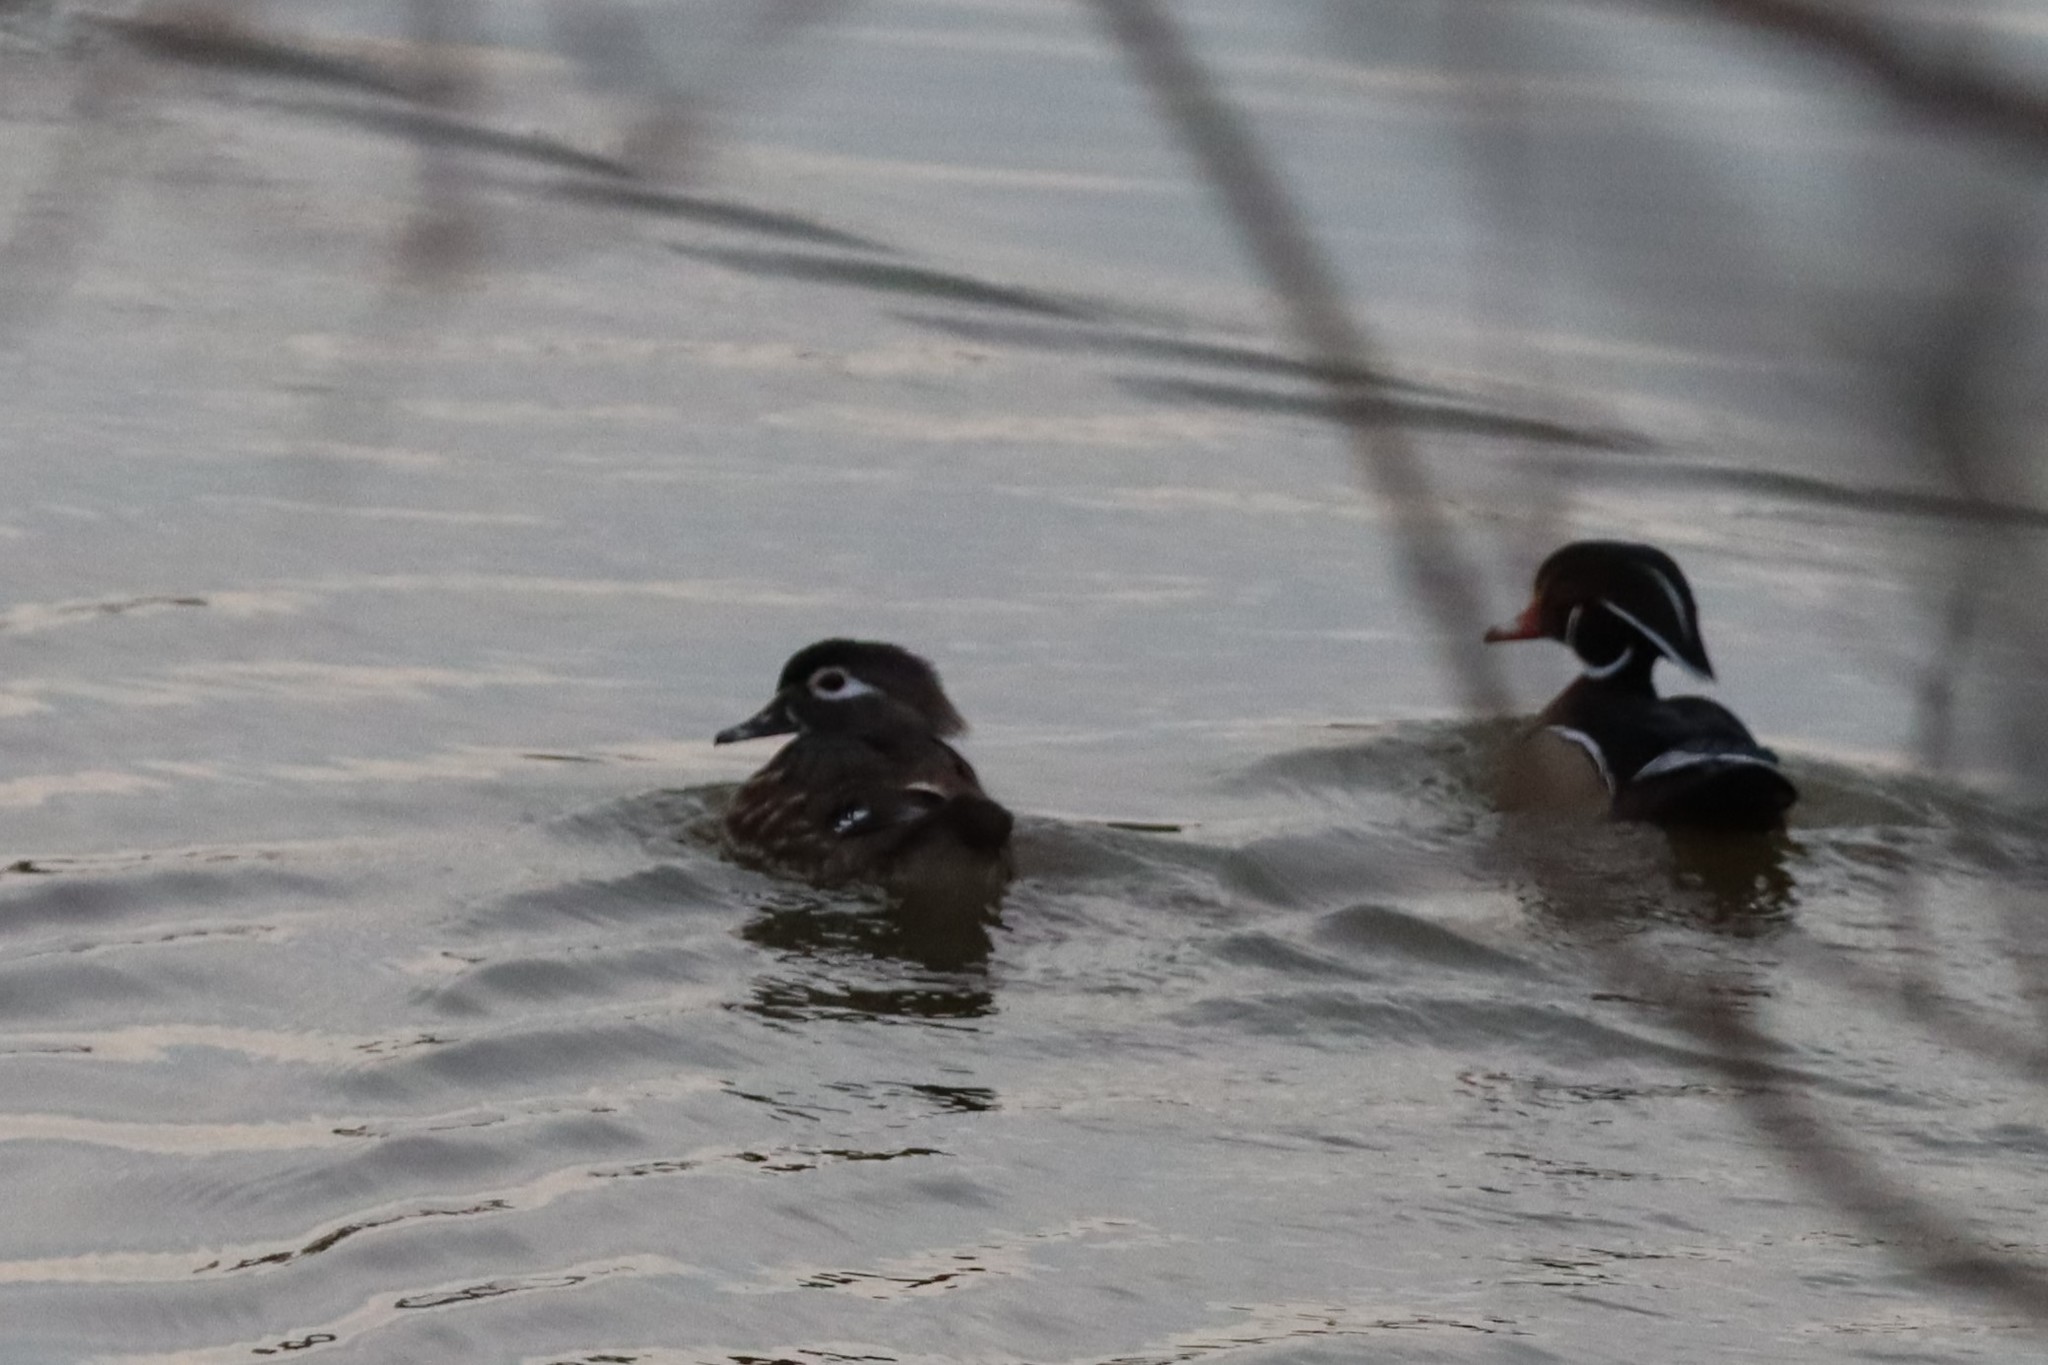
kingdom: Animalia
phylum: Chordata
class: Aves
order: Anseriformes
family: Anatidae
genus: Aix
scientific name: Aix sponsa
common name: Wood duck
